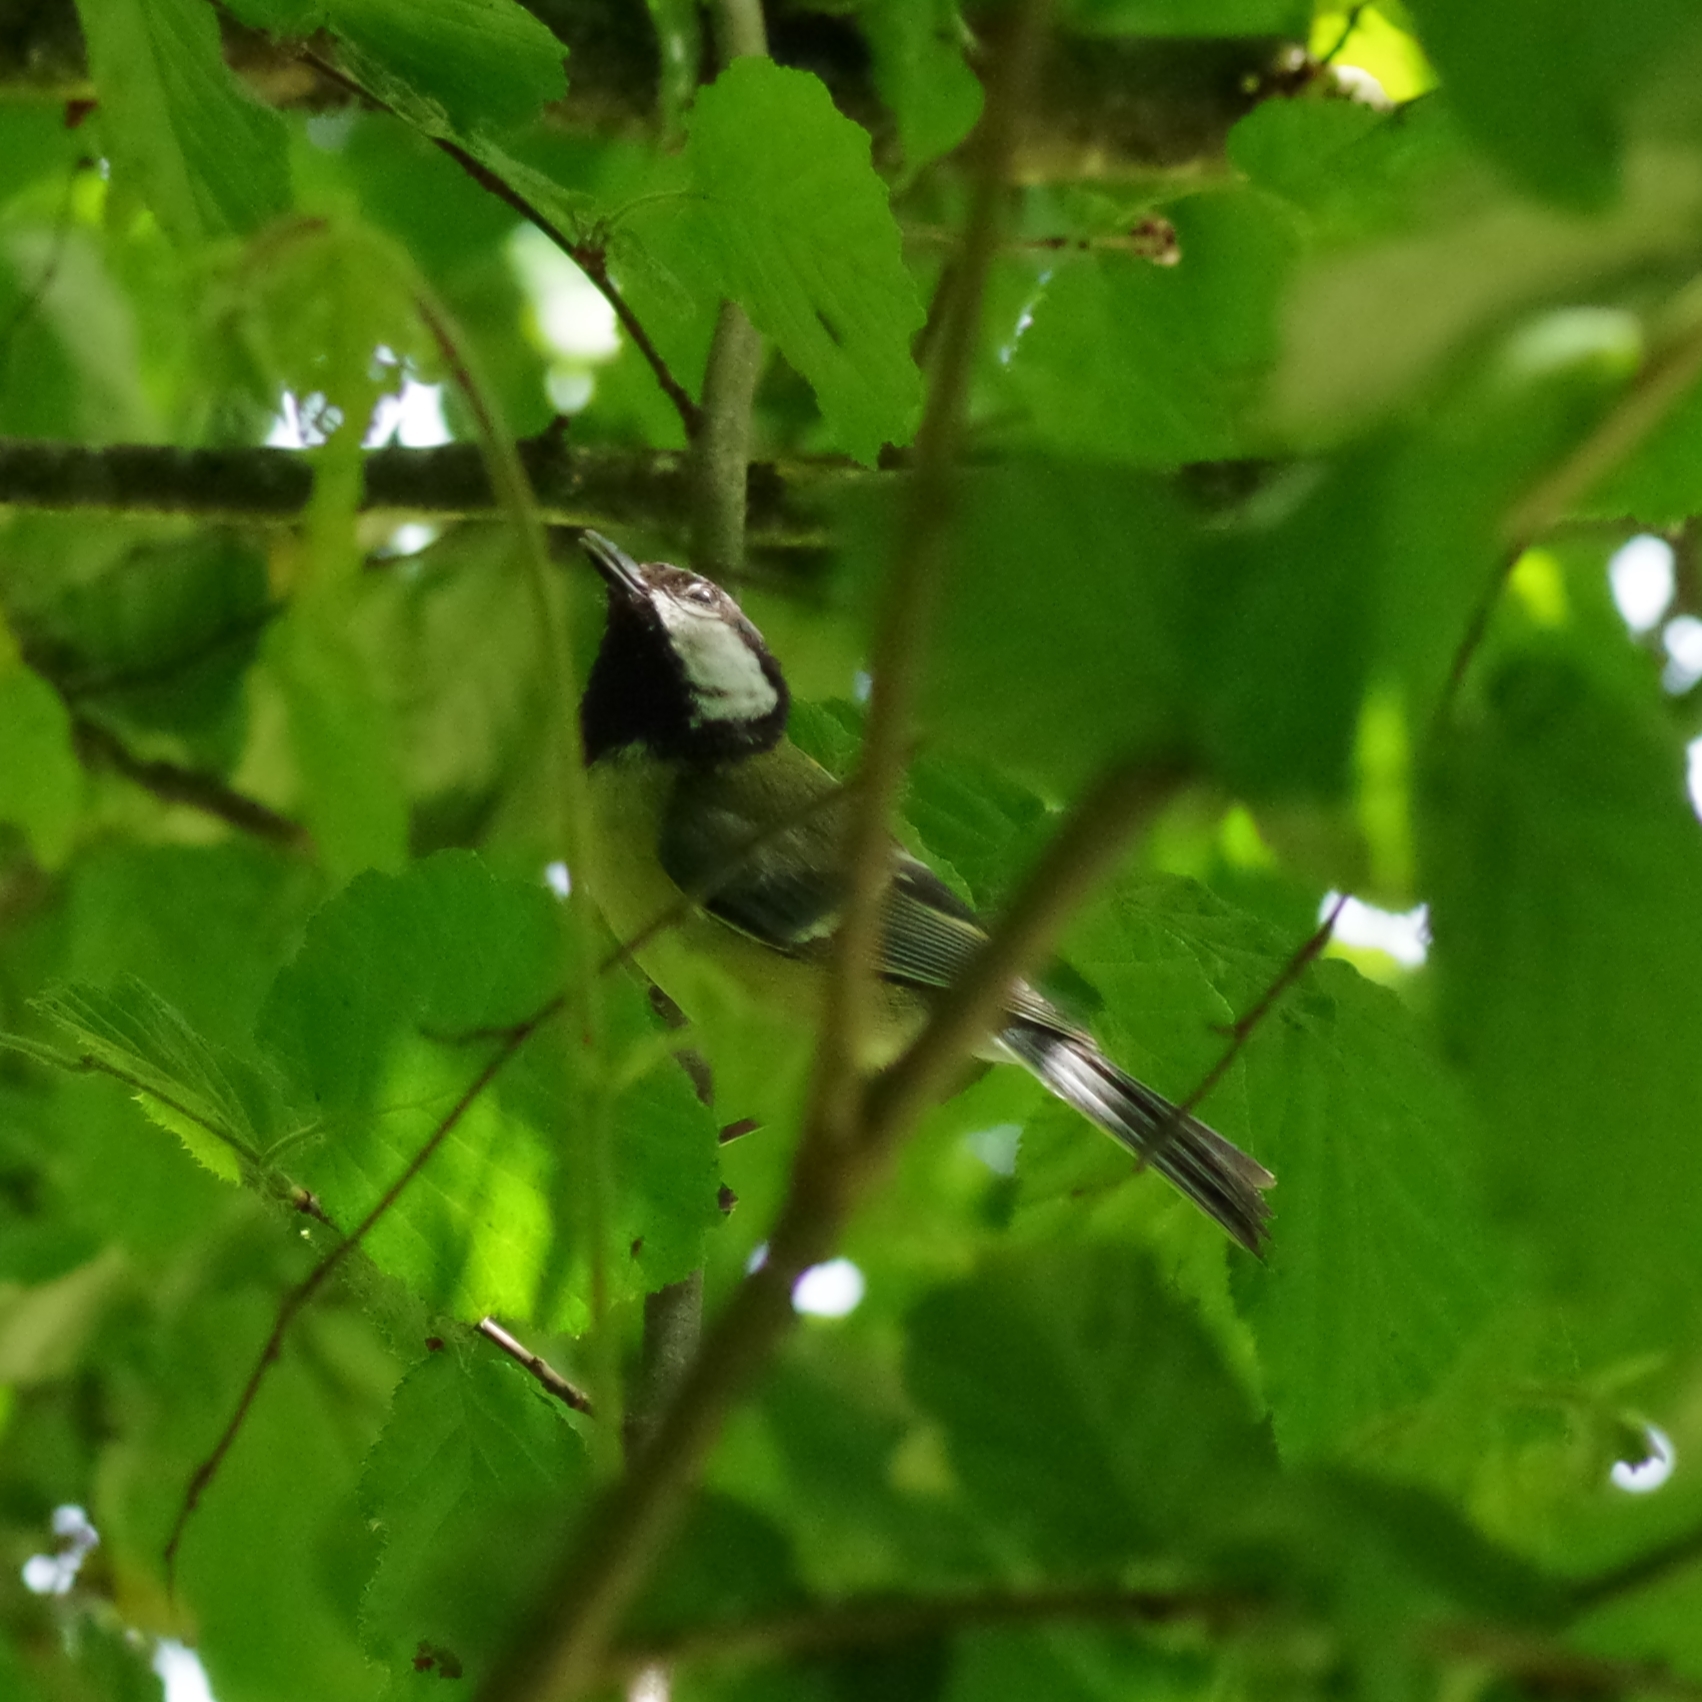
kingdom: Animalia
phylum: Chordata
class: Aves
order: Passeriformes
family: Paridae
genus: Parus
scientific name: Parus major
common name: Great tit
